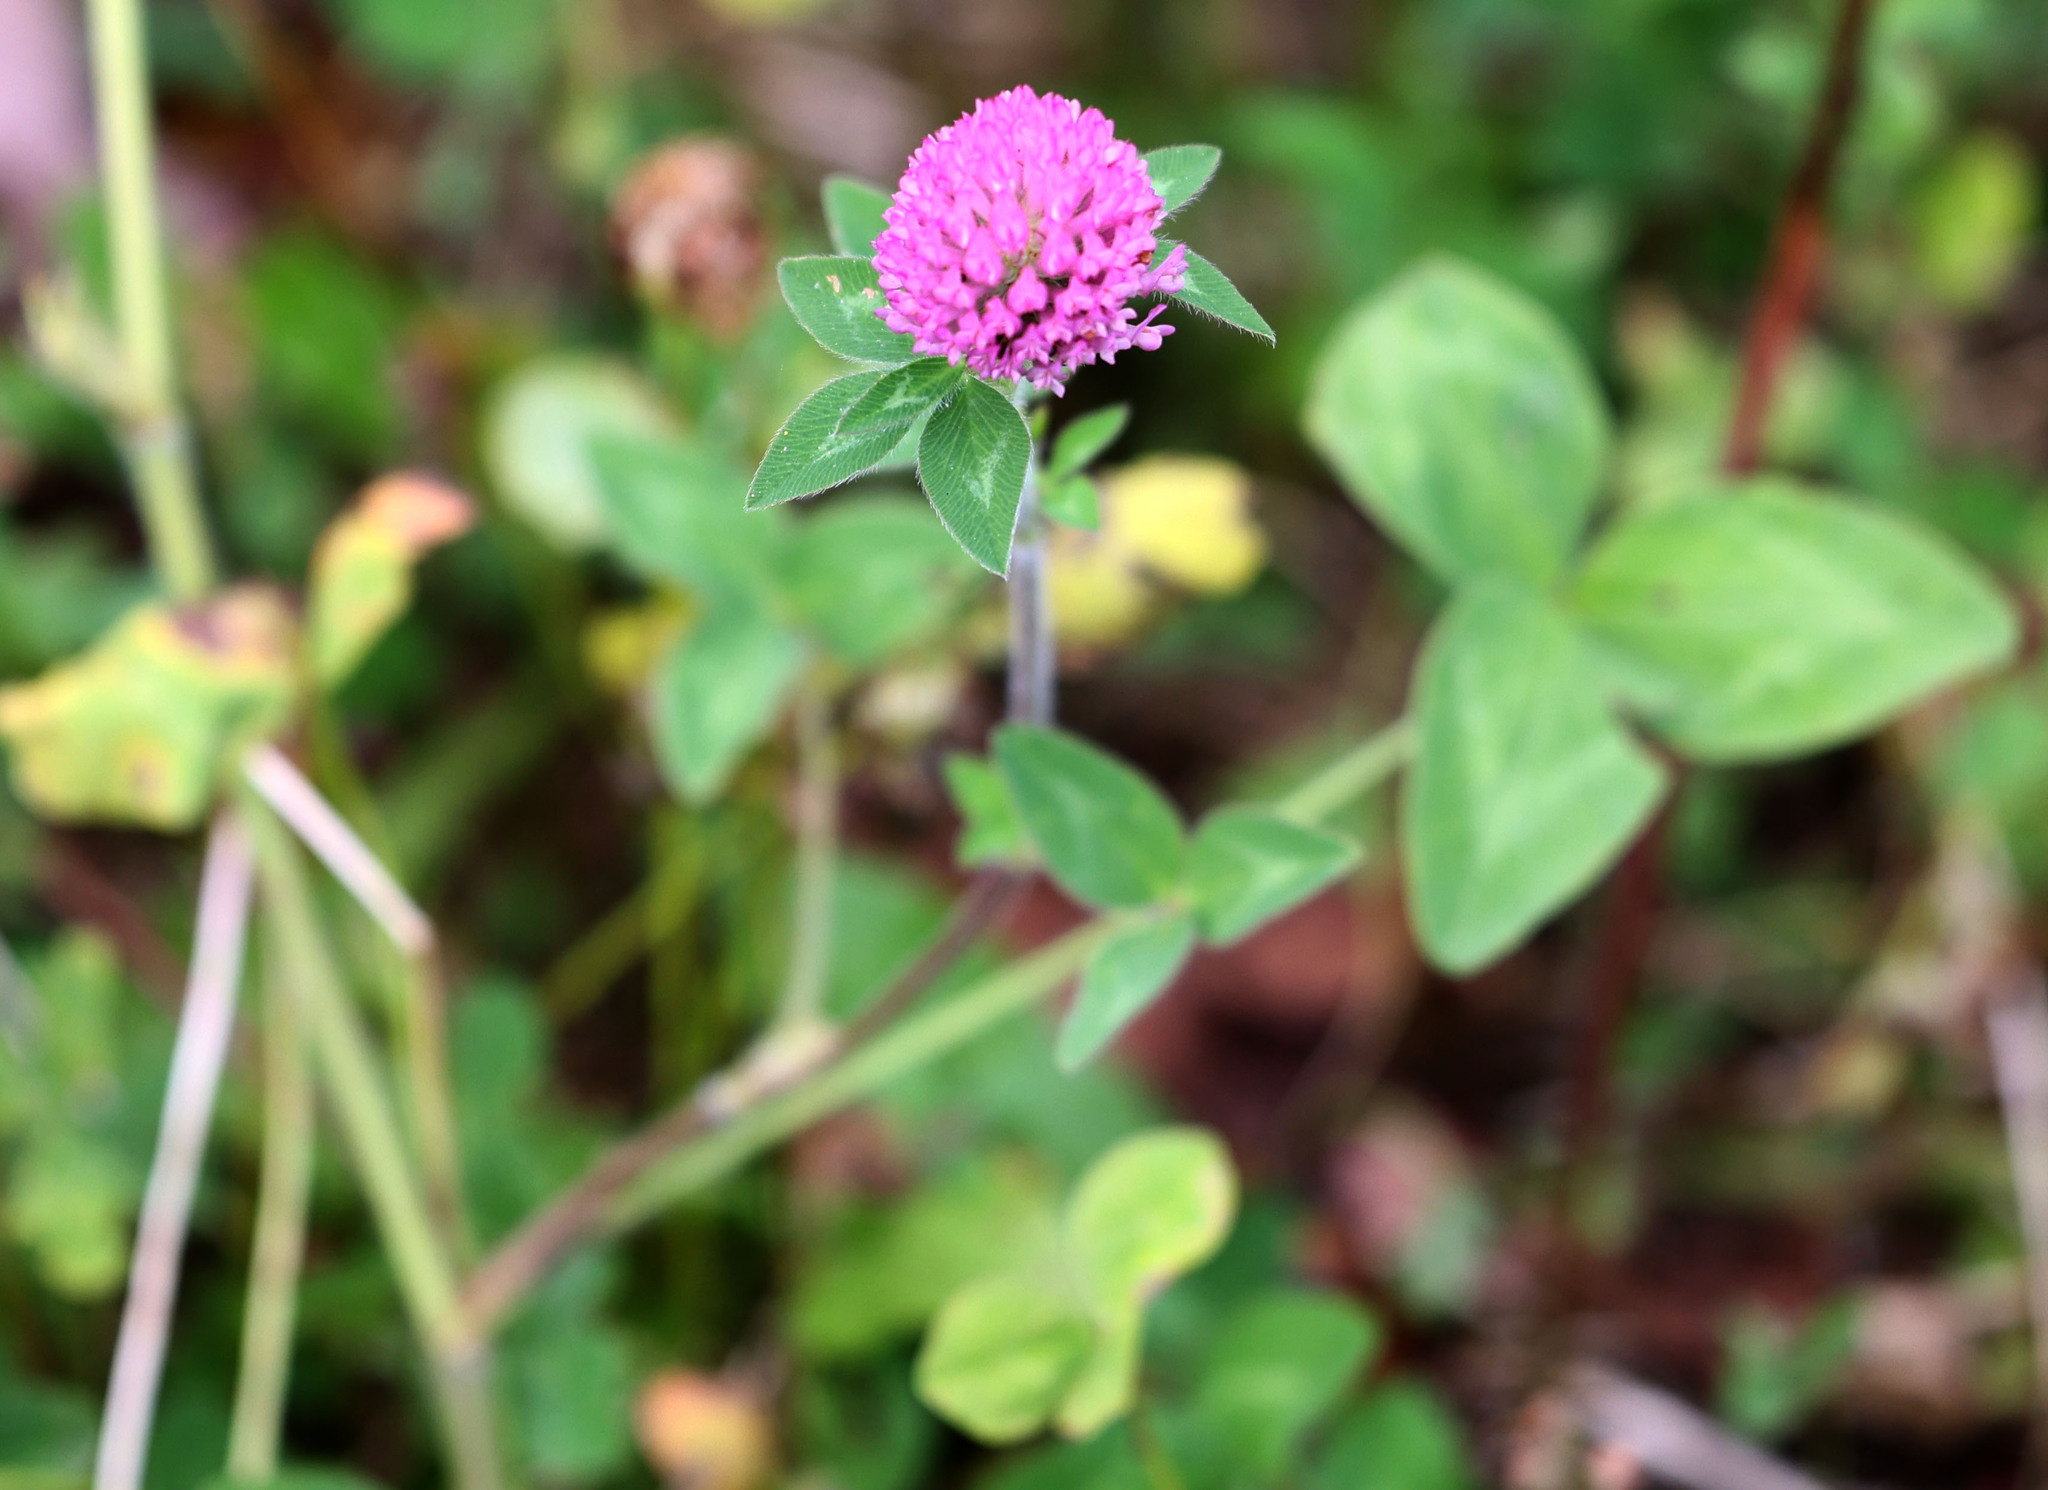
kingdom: Plantae
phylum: Tracheophyta
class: Magnoliopsida
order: Fabales
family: Fabaceae
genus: Trifolium
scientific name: Trifolium pratense
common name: Red clover
